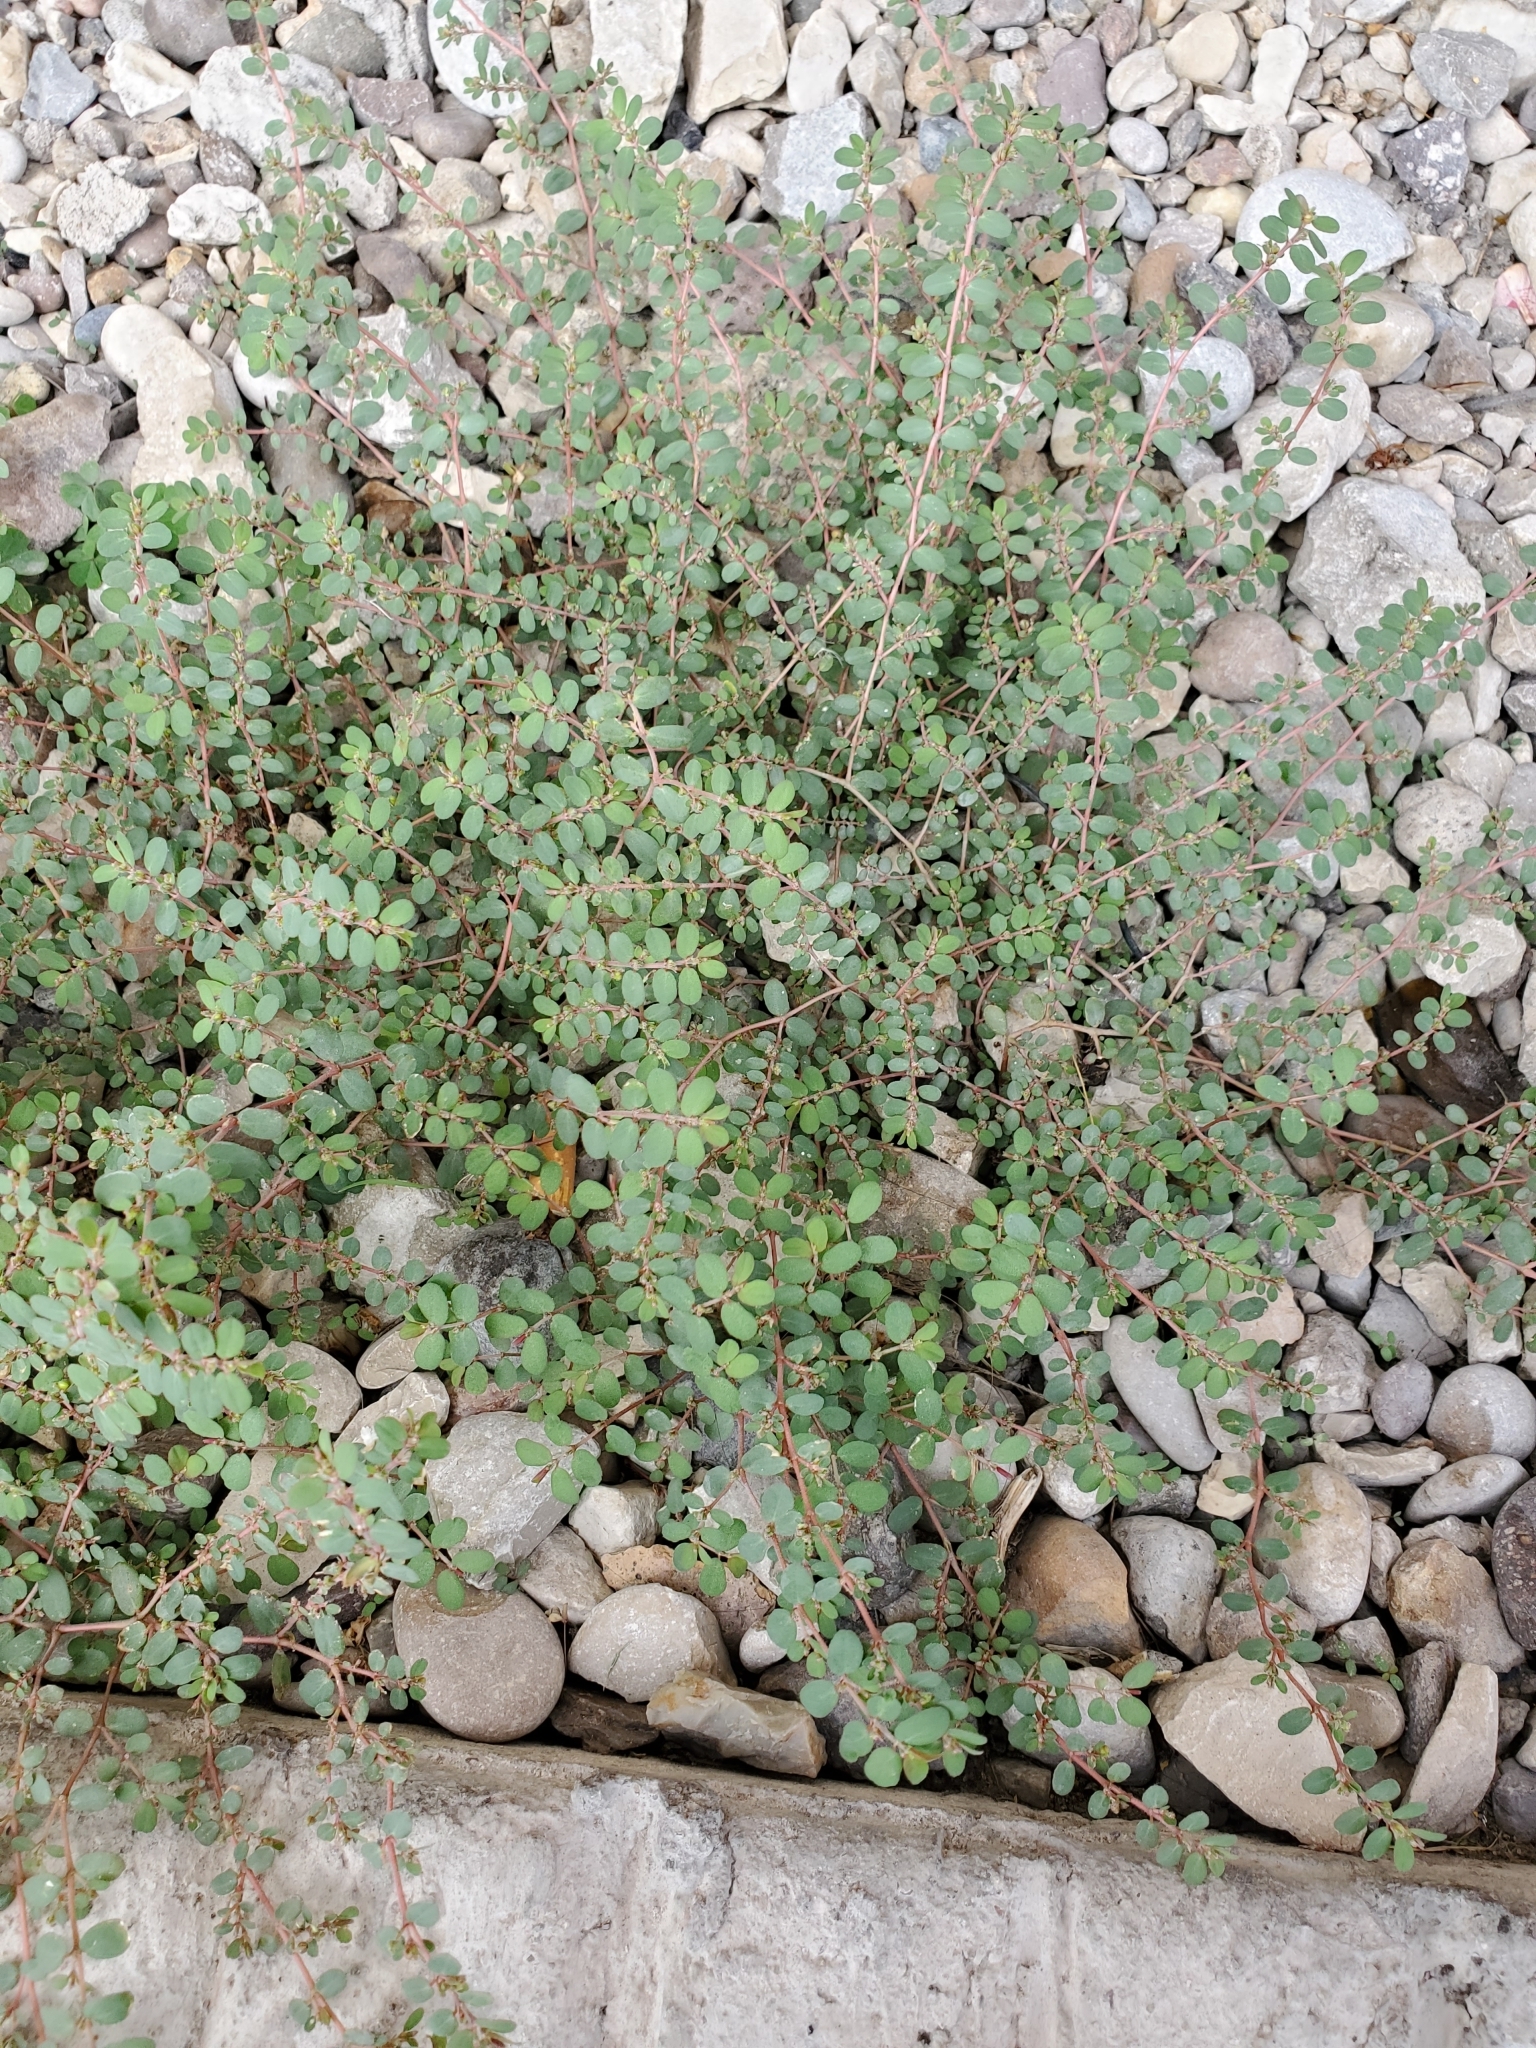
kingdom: Plantae
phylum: Tracheophyta
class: Magnoliopsida
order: Malpighiales
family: Euphorbiaceae
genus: Euphorbia
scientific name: Euphorbia prostrata
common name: Prostrate sandmat
